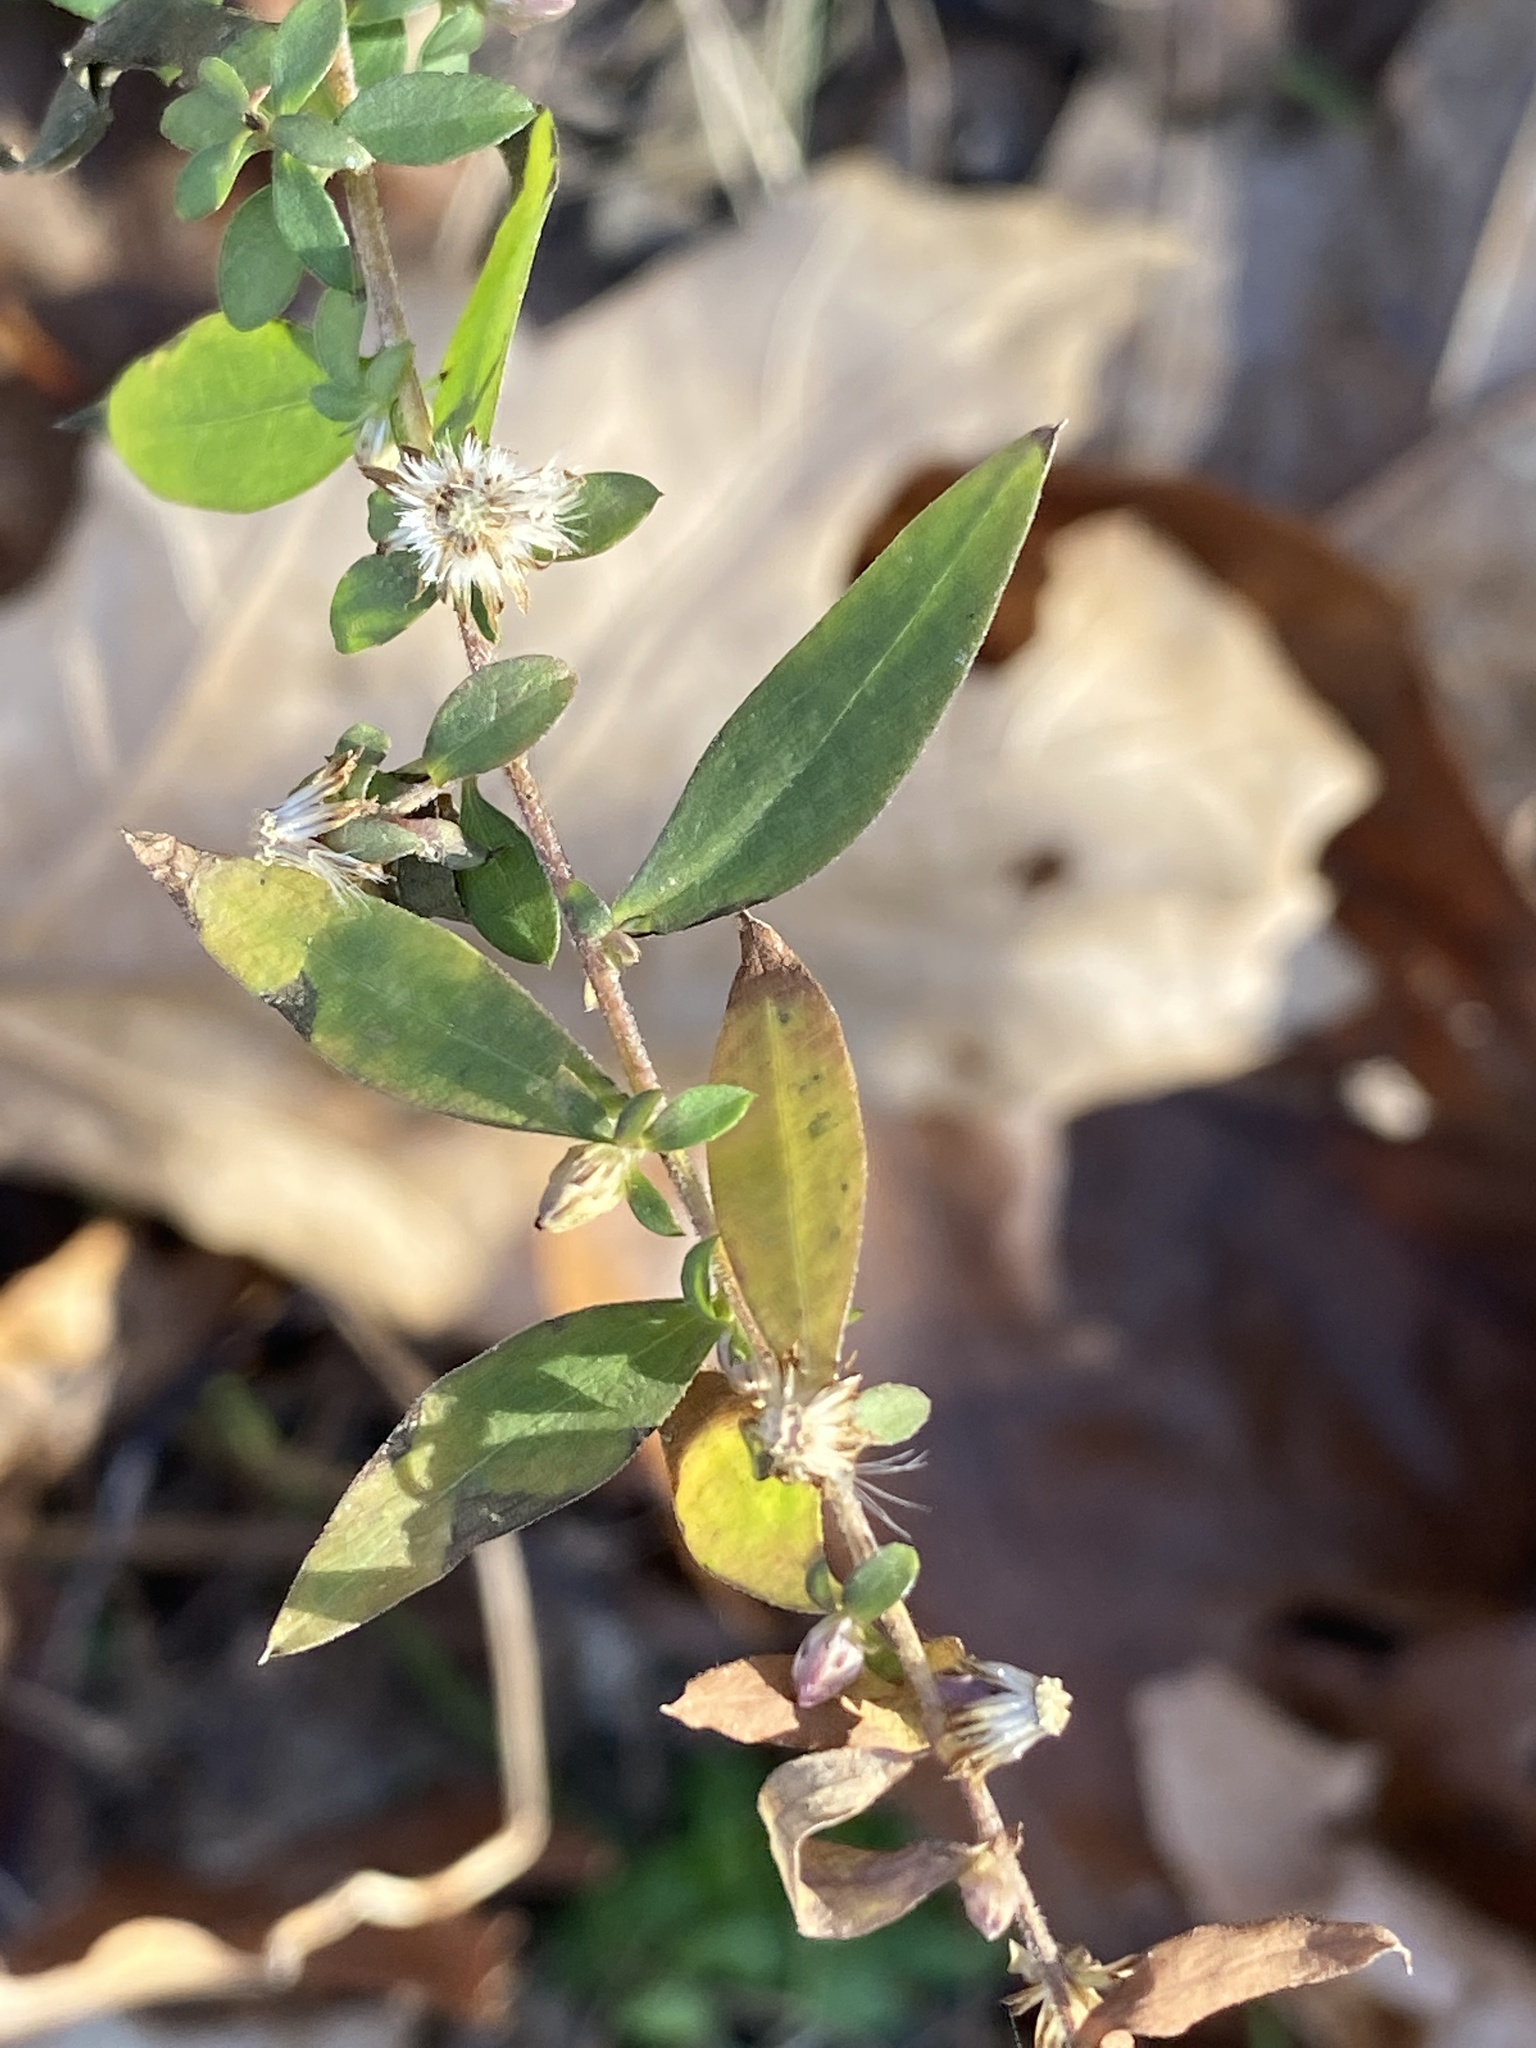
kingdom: Plantae
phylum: Tracheophyta
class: Magnoliopsida
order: Asterales
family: Asteraceae
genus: Solidago
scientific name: Solidago caesia
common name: Woodland goldenrod
